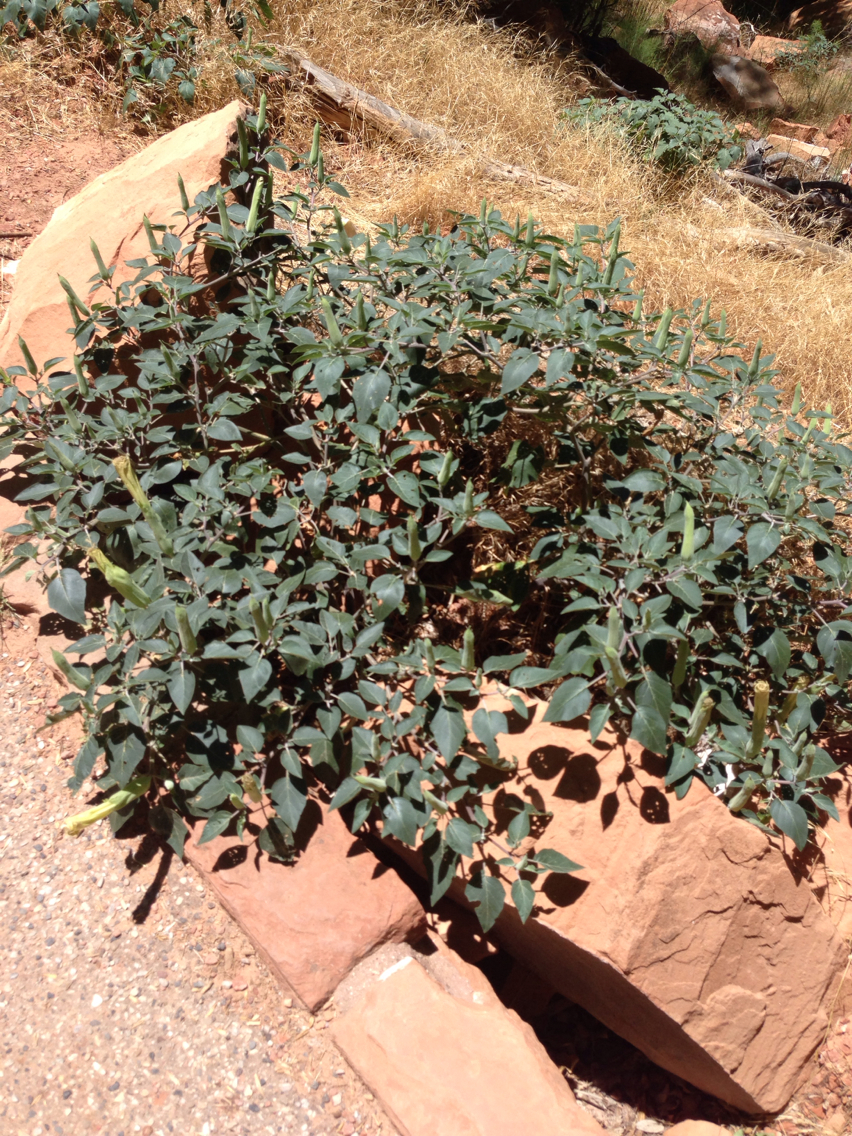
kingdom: Plantae
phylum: Tracheophyta
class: Magnoliopsida
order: Solanales
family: Solanaceae
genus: Datura
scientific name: Datura wrightii
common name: Sacred thorn-apple
